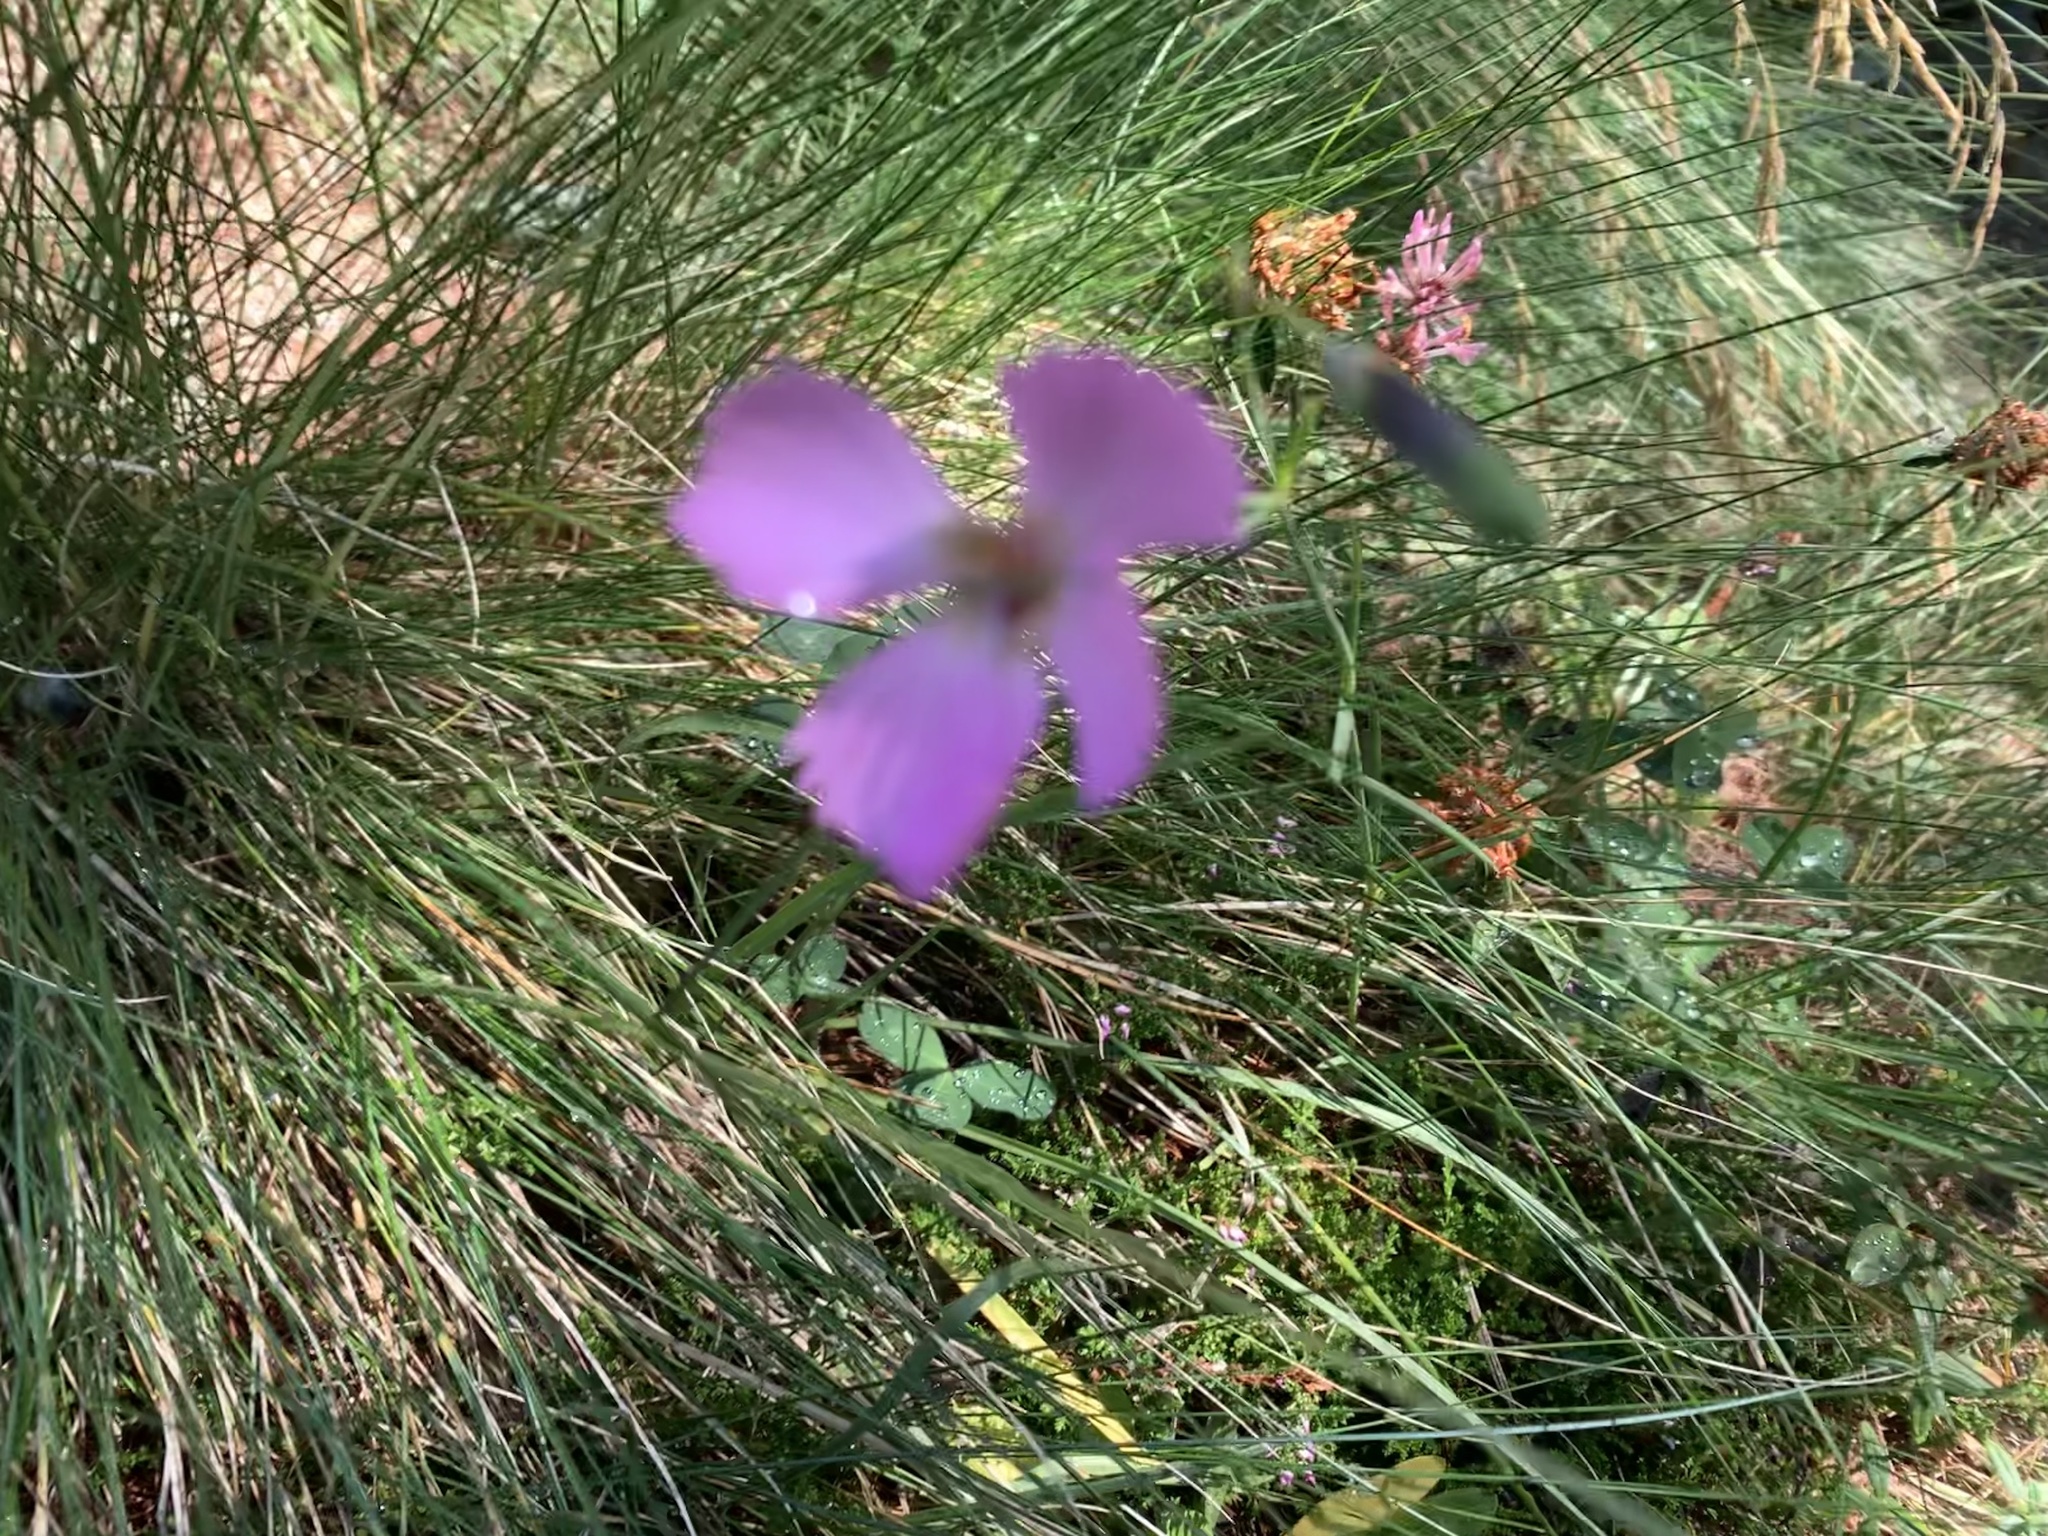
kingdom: Plantae
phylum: Tracheophyta
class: Magnoliopsida
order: Caryophyllales
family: Caryophyllaceae
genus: Dianthus
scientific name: Dianthus sylvestris
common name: Wood pink
